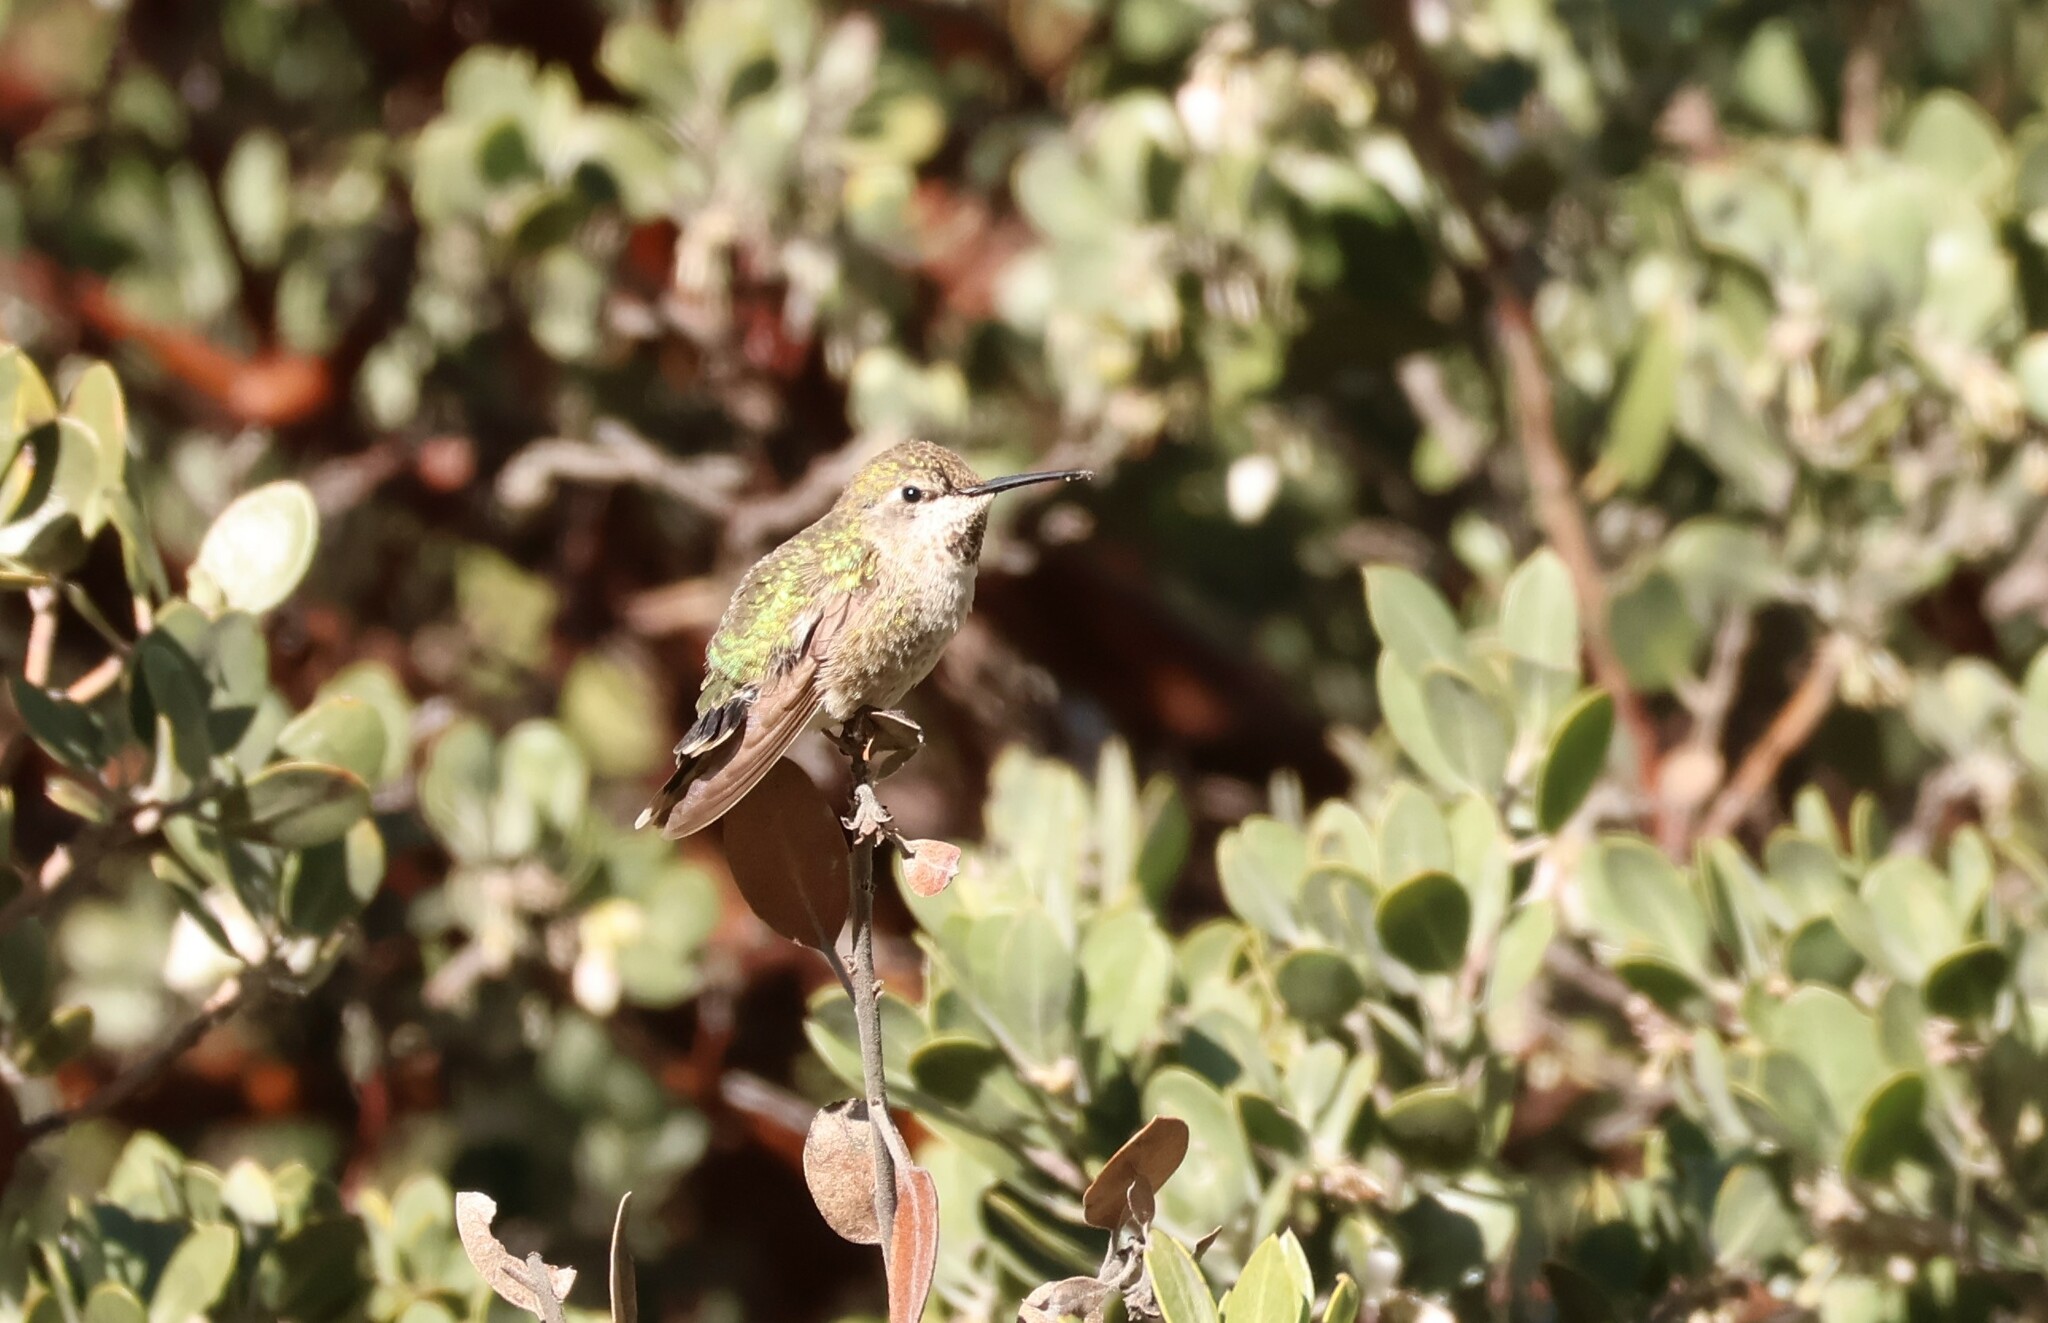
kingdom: Animalia
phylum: Chordata
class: Aves
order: Apodiformes
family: Trochilidae
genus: Calypte
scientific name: Calypte anna
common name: Anna's hummingbird
